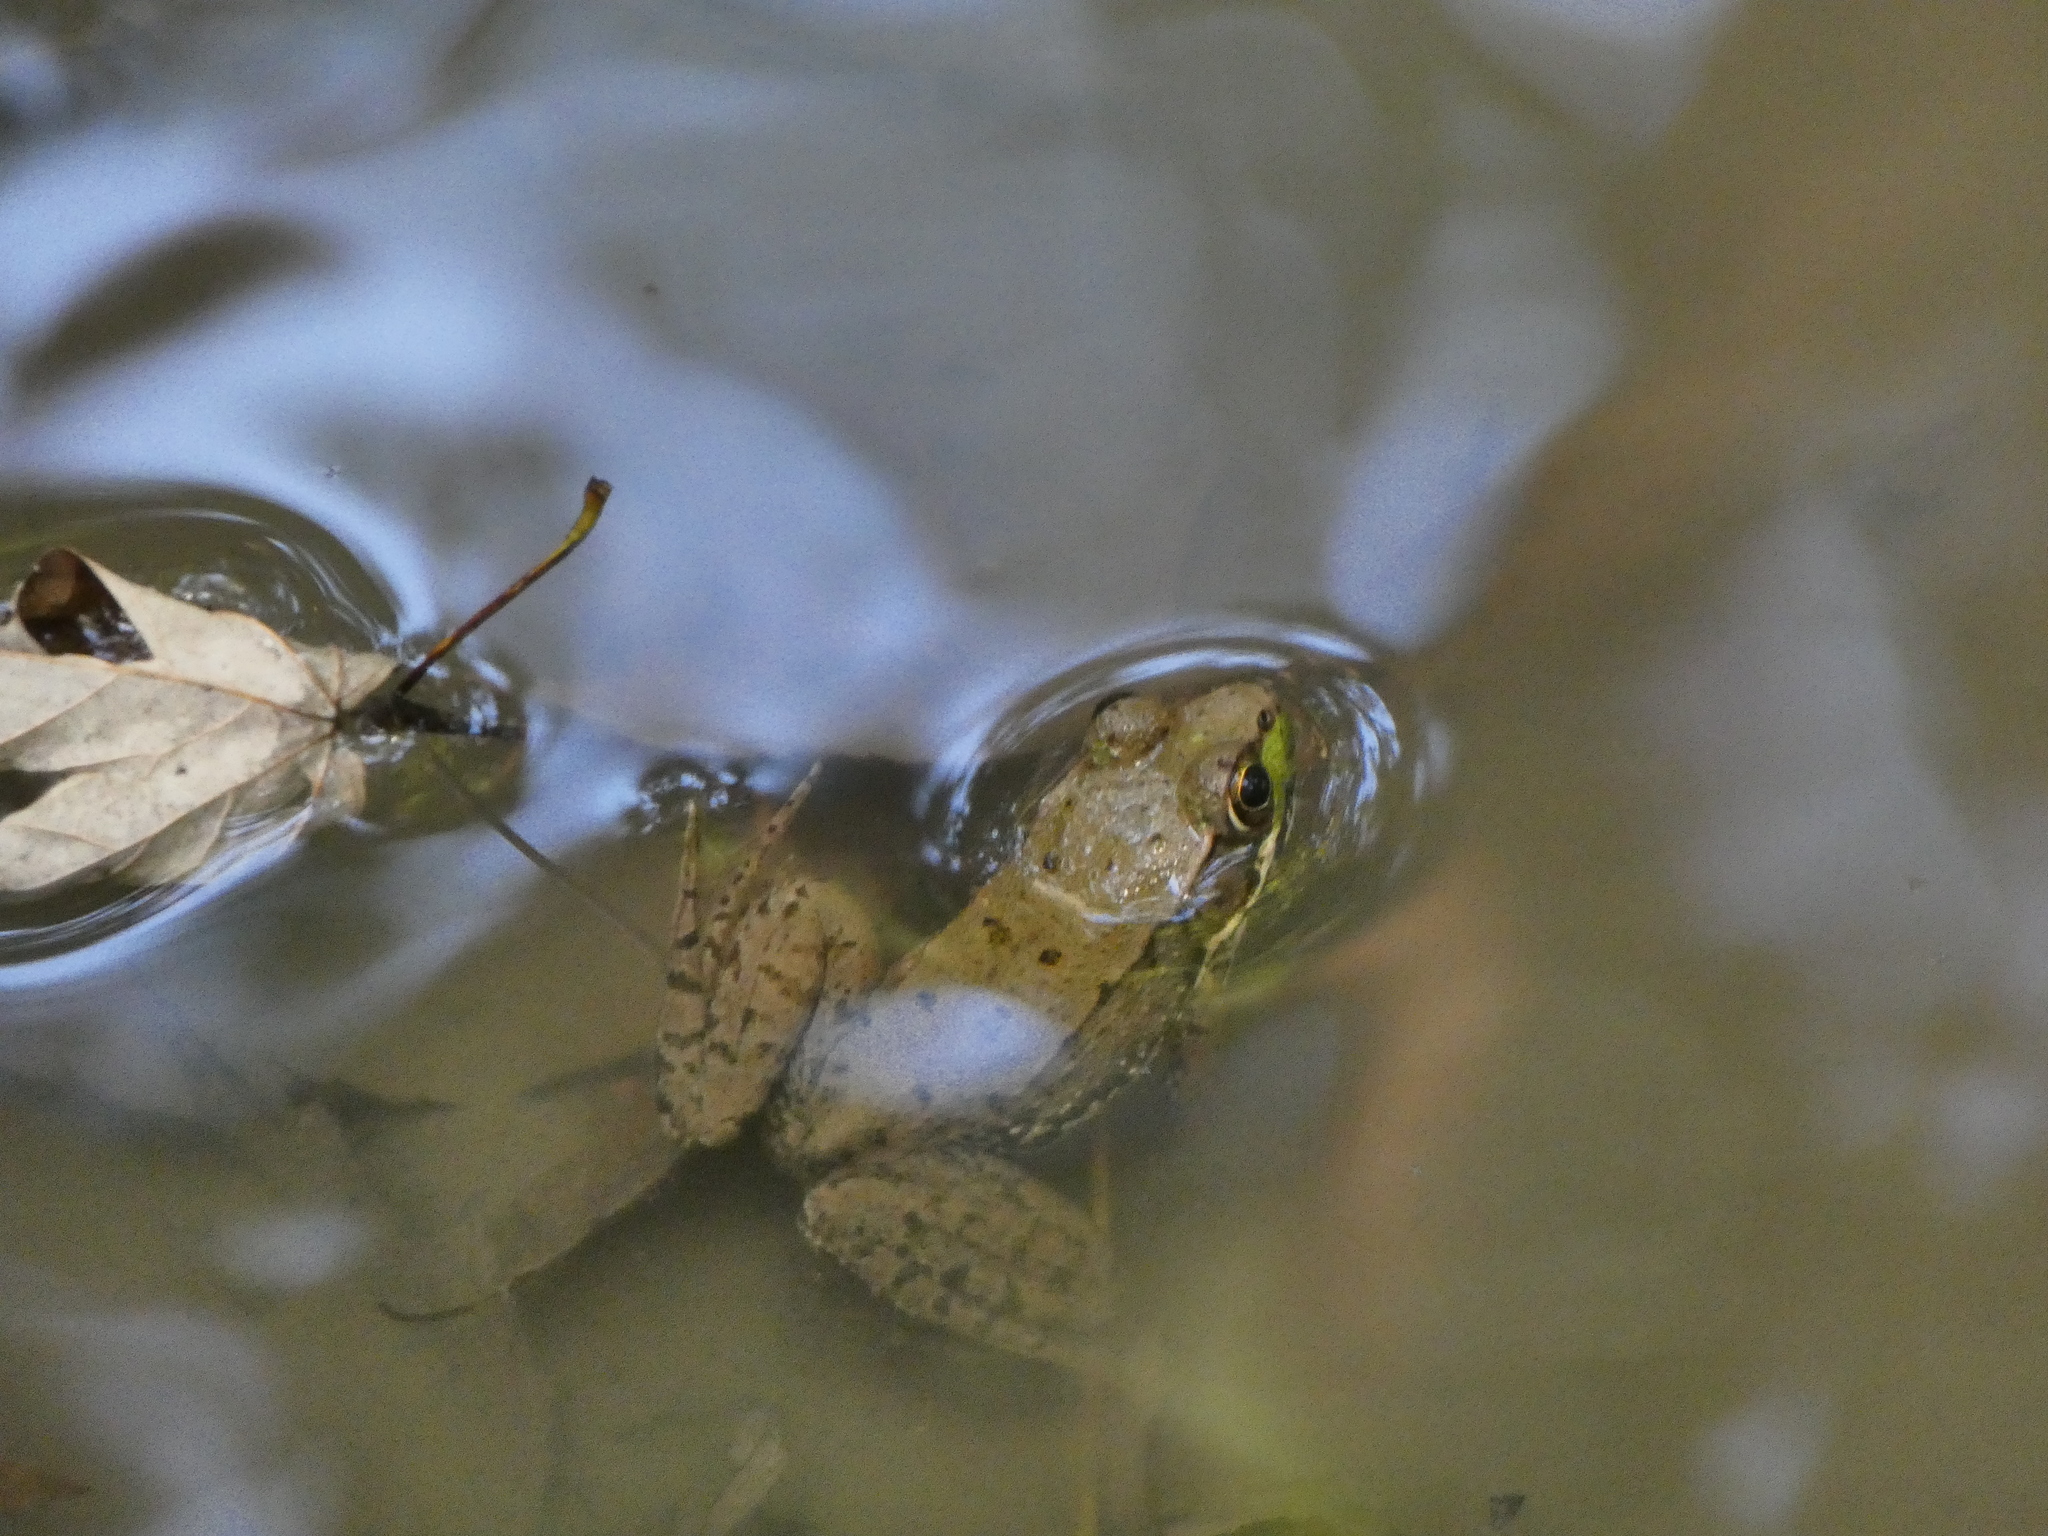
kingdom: Animalia
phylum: Chordata
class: Amphibia
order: Anura
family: Ranidae
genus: Lithobates
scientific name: Lithobates clamitans
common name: Green frog
